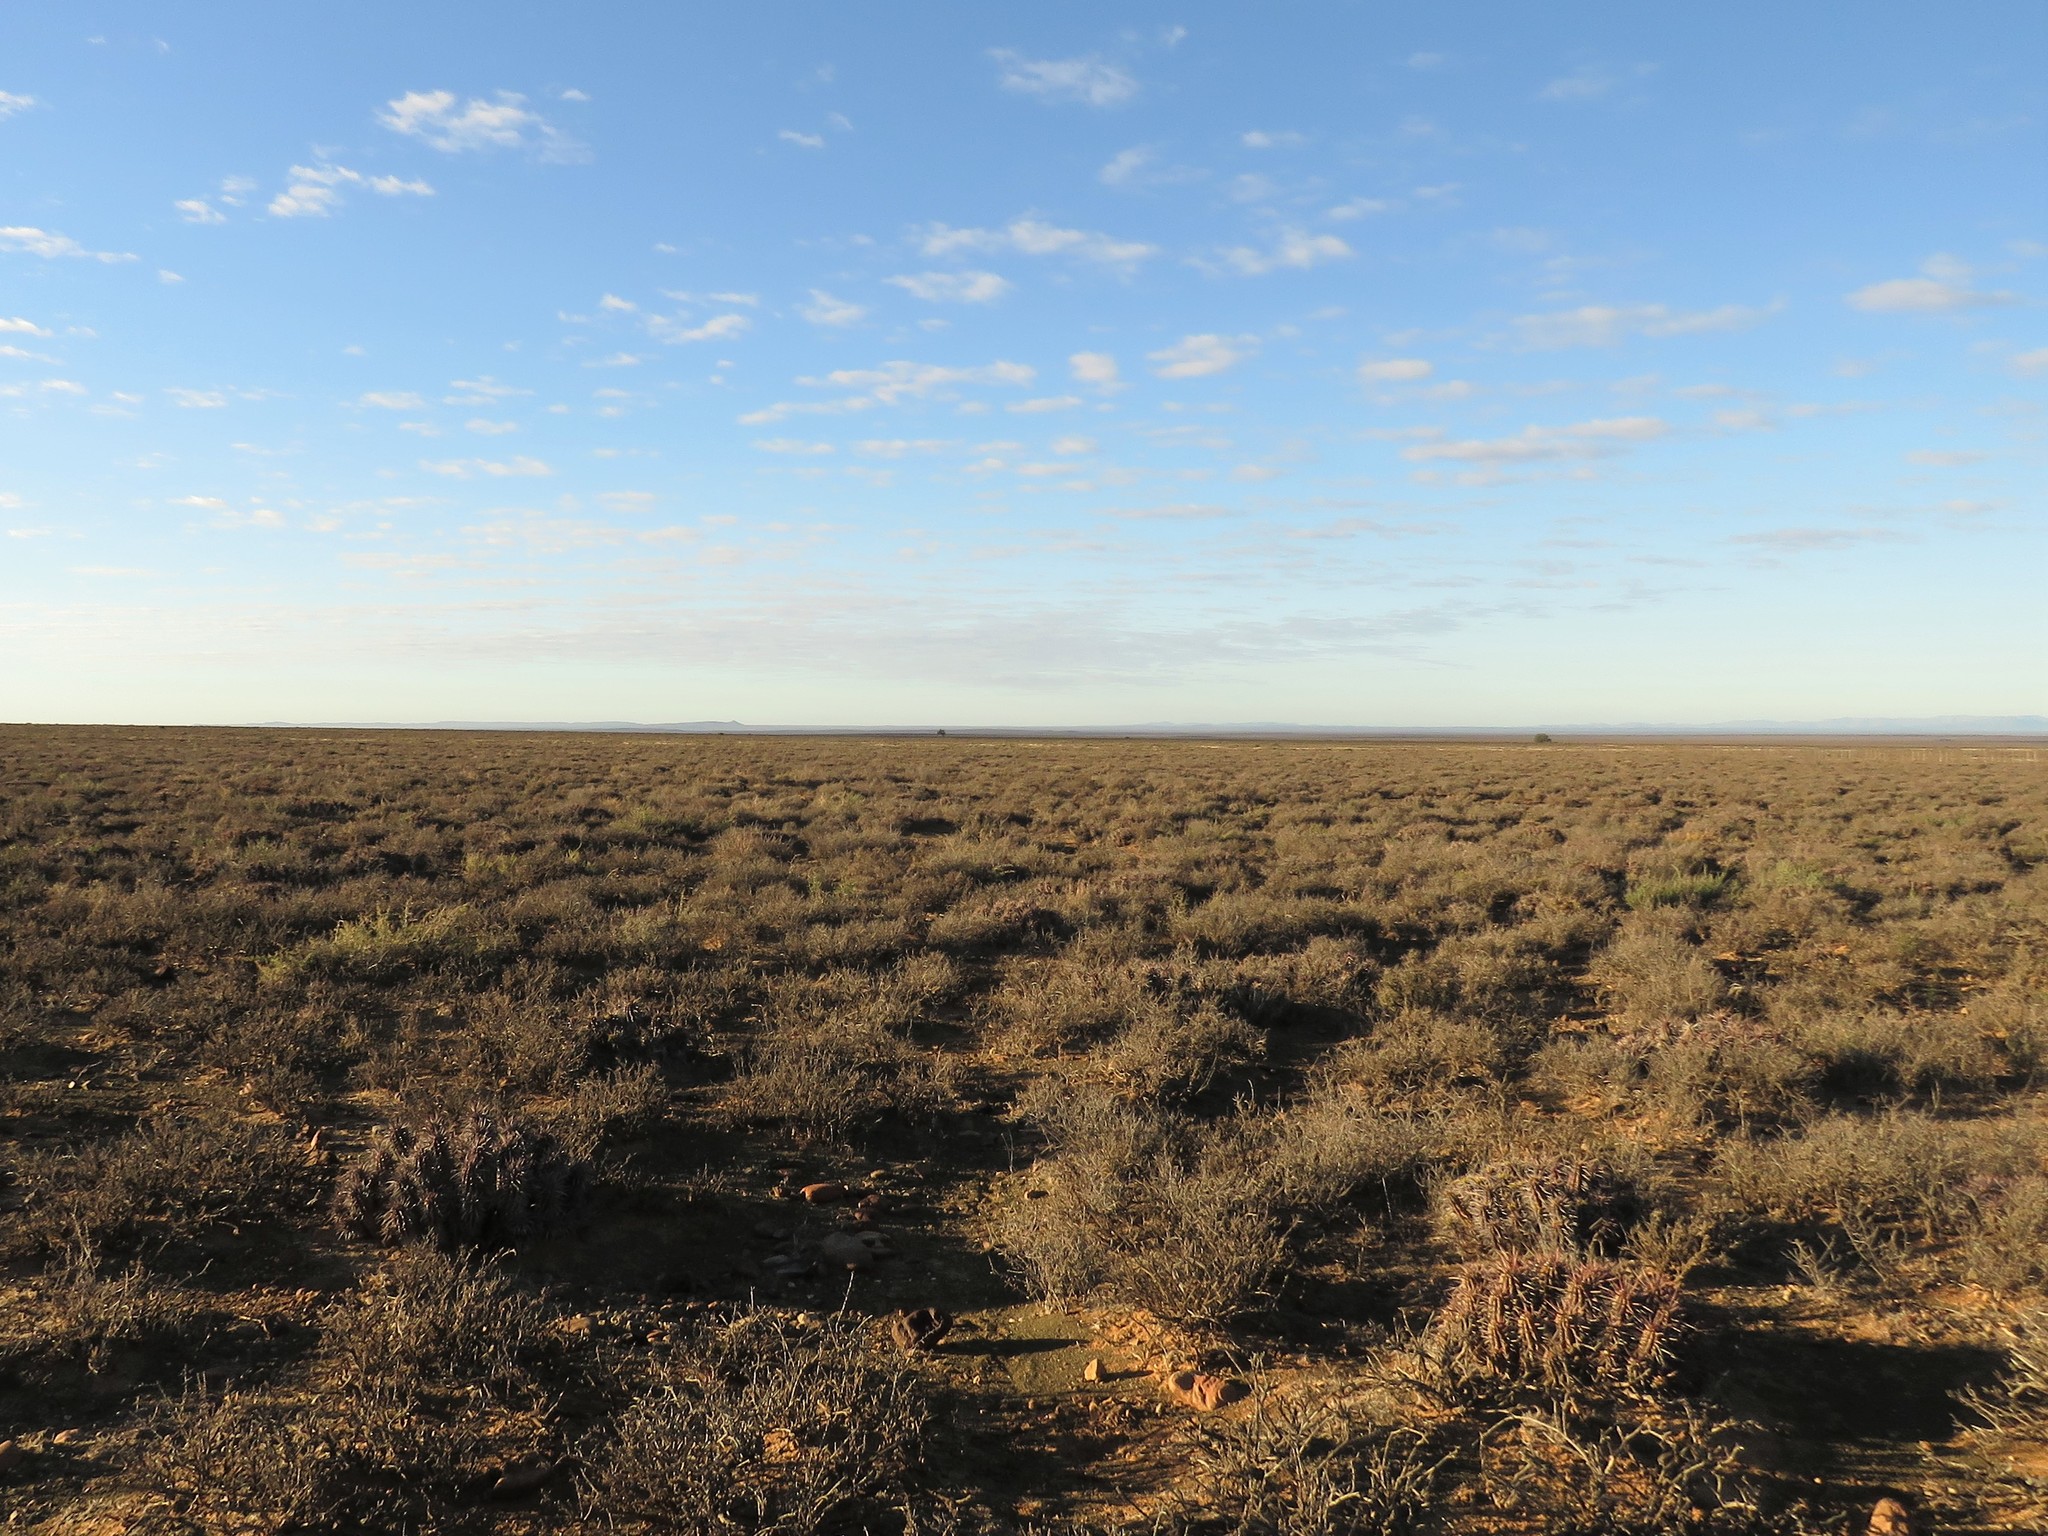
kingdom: Plantae
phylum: Tracheophyta
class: Magnoliopsida
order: Malpighiales
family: Euphorbiaceae
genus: Euphorbia
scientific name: Euphorbia ferox
